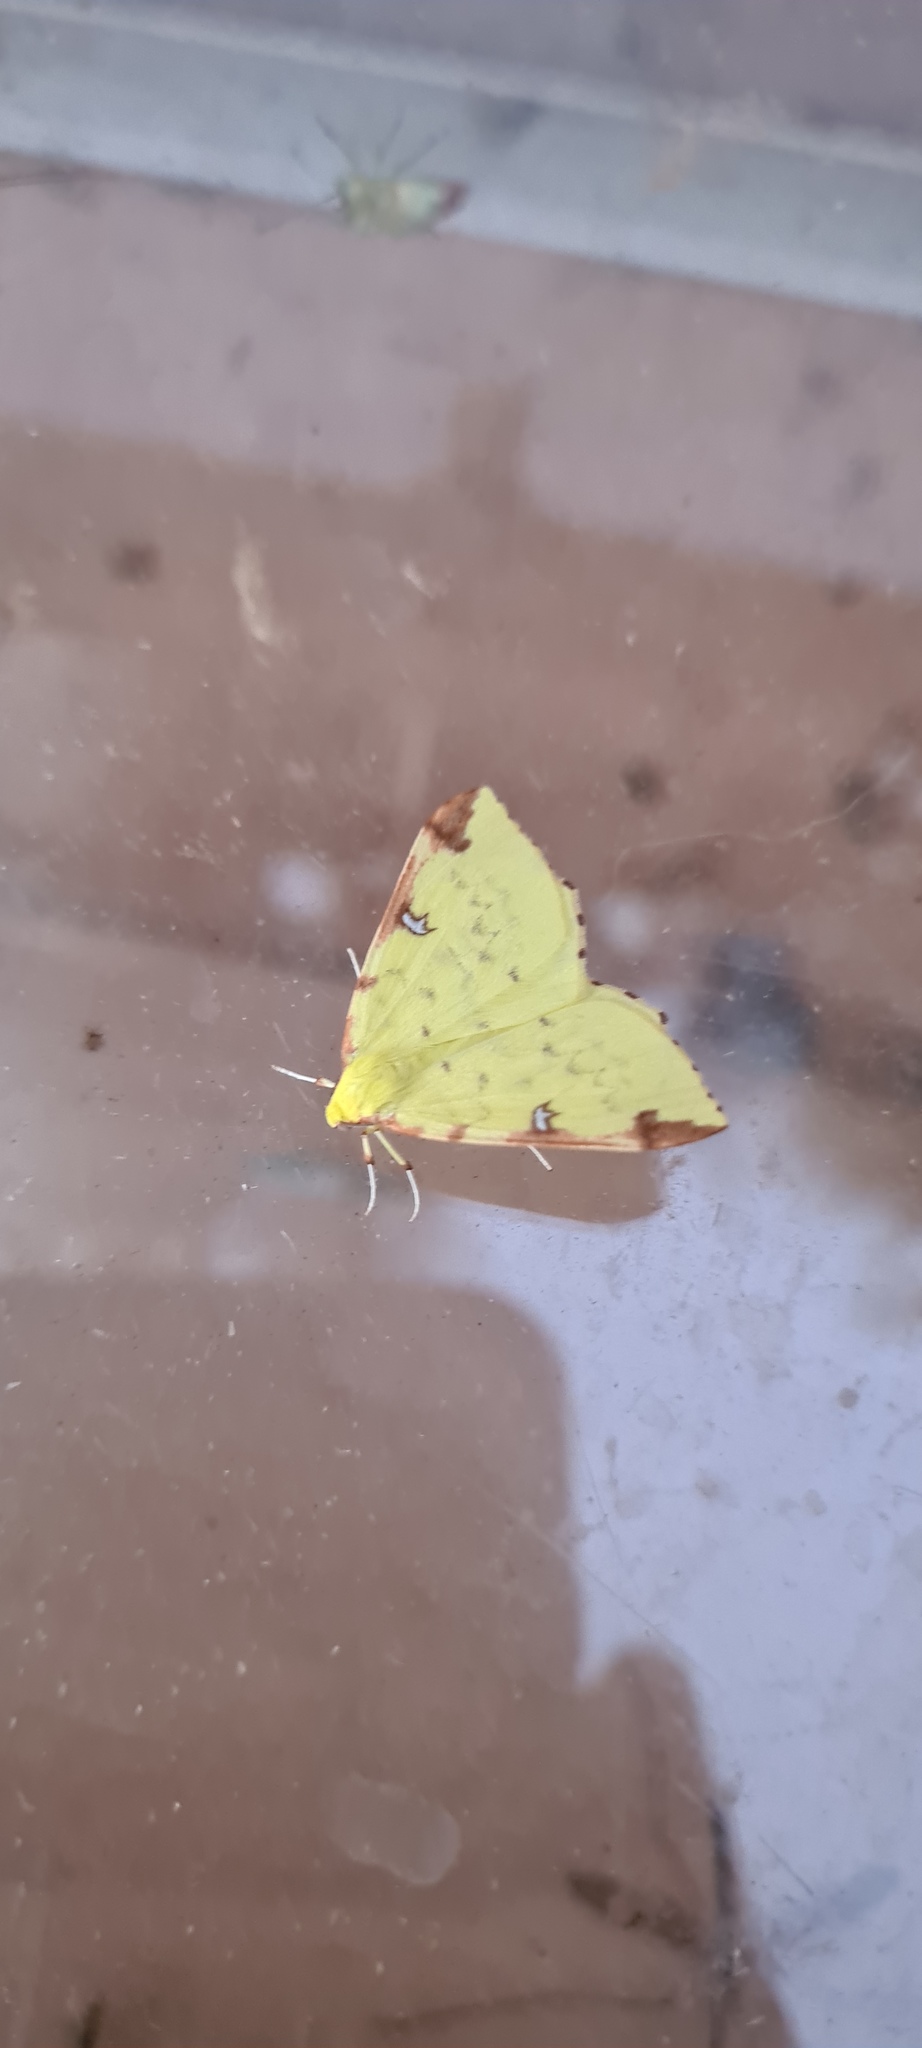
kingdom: Animalia
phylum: Arthropoda
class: Insecta
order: Lepidoptera
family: Geometridae
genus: Opisthograptis
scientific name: Opisthograptis luteolata
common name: Brimstone moth
